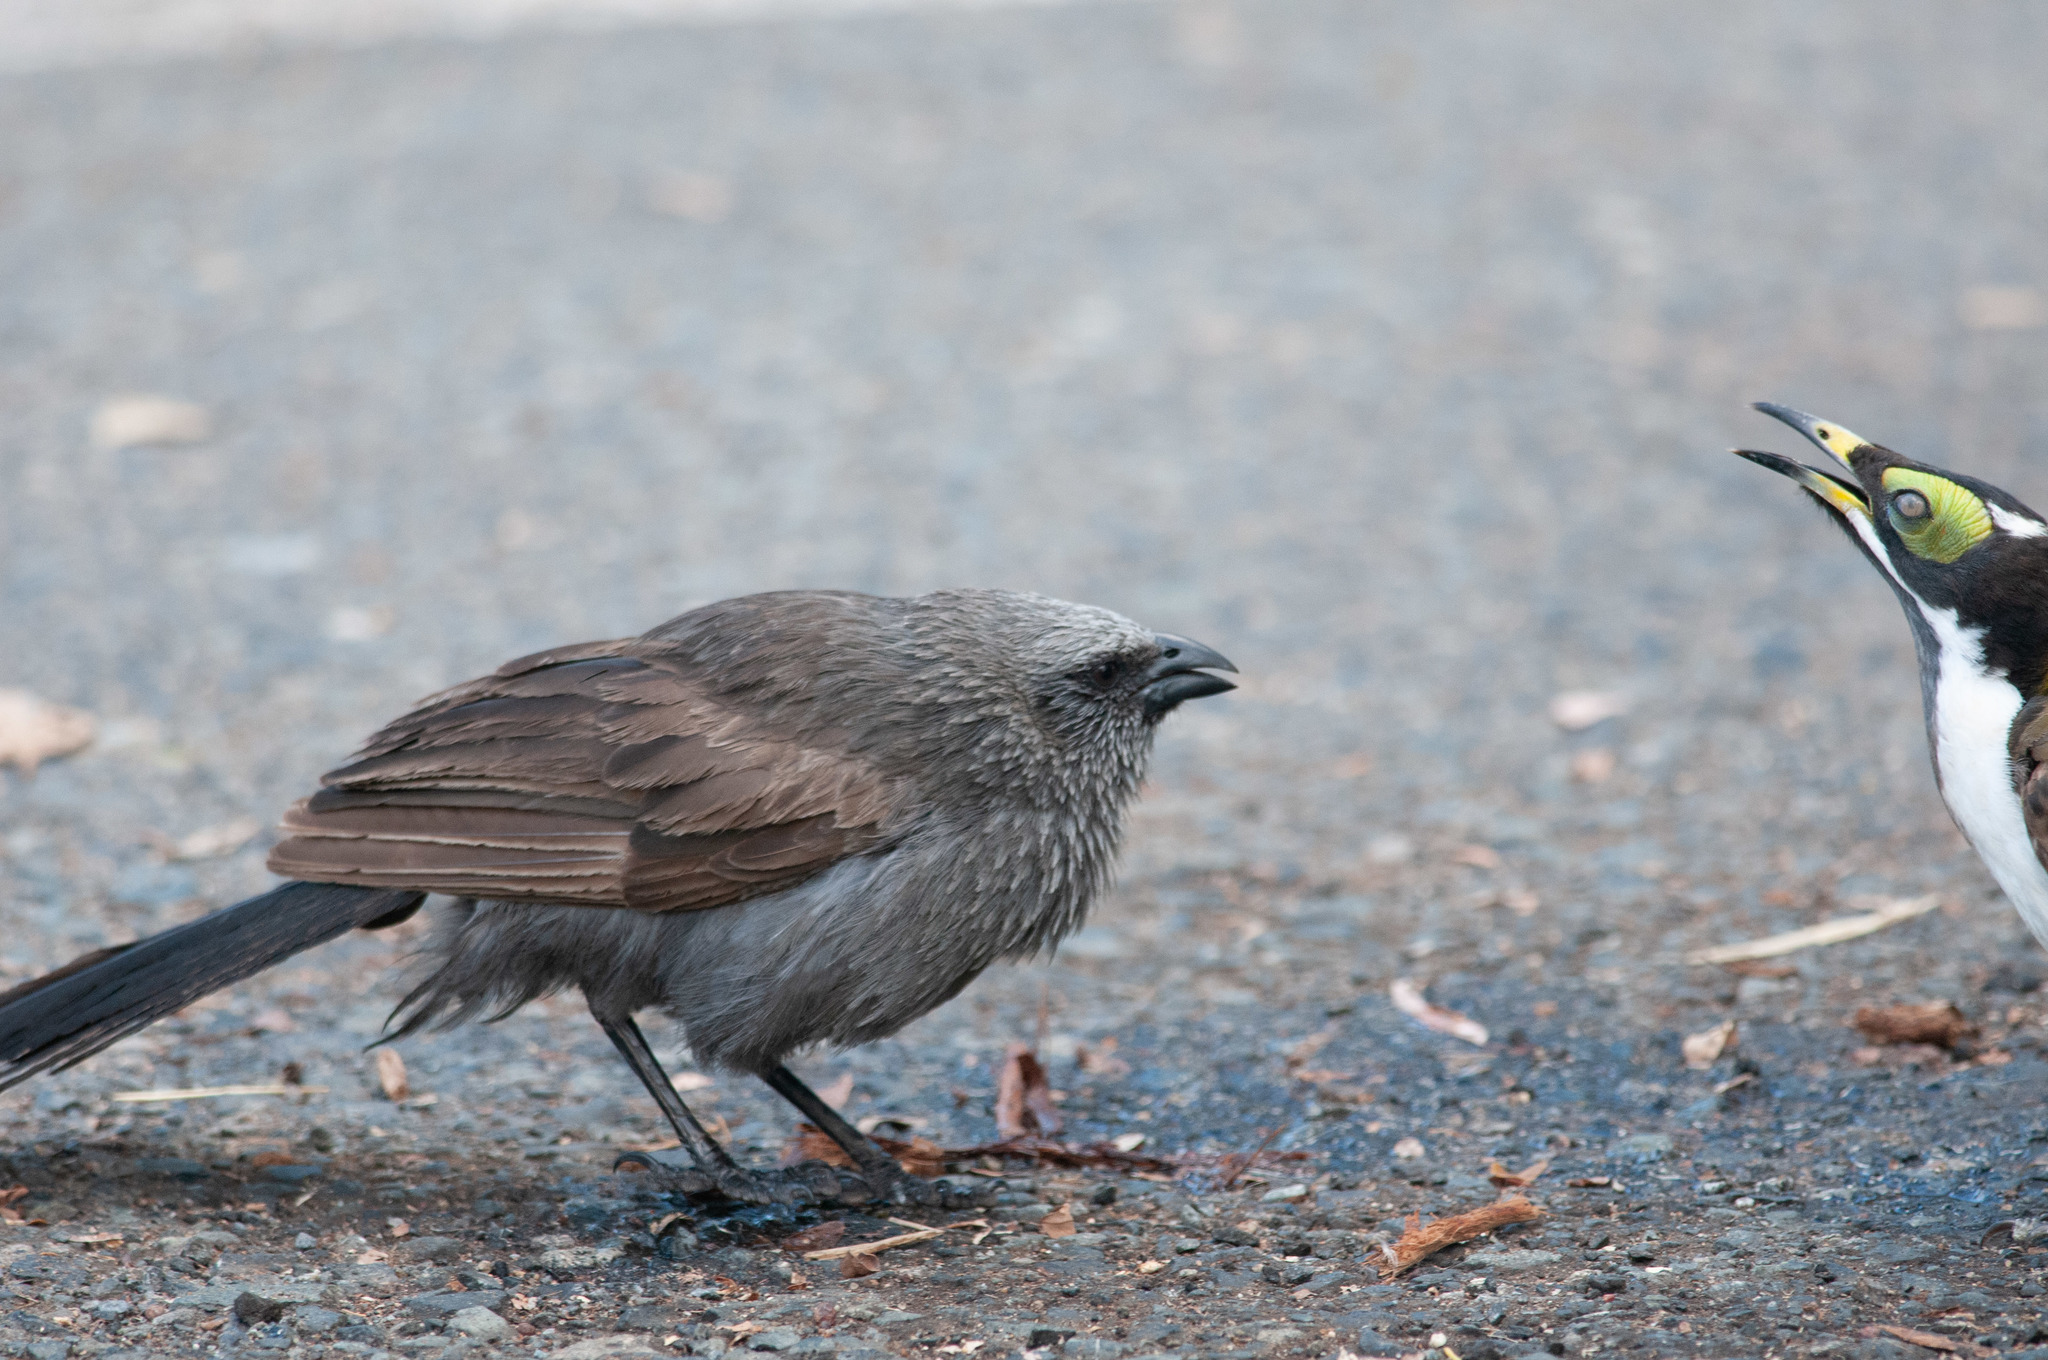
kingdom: Animalia
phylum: Chordata
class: Aves
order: Passeriformes
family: Corcoracidae
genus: Struthidea
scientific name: Struthidea cinerea
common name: Apostlebird
